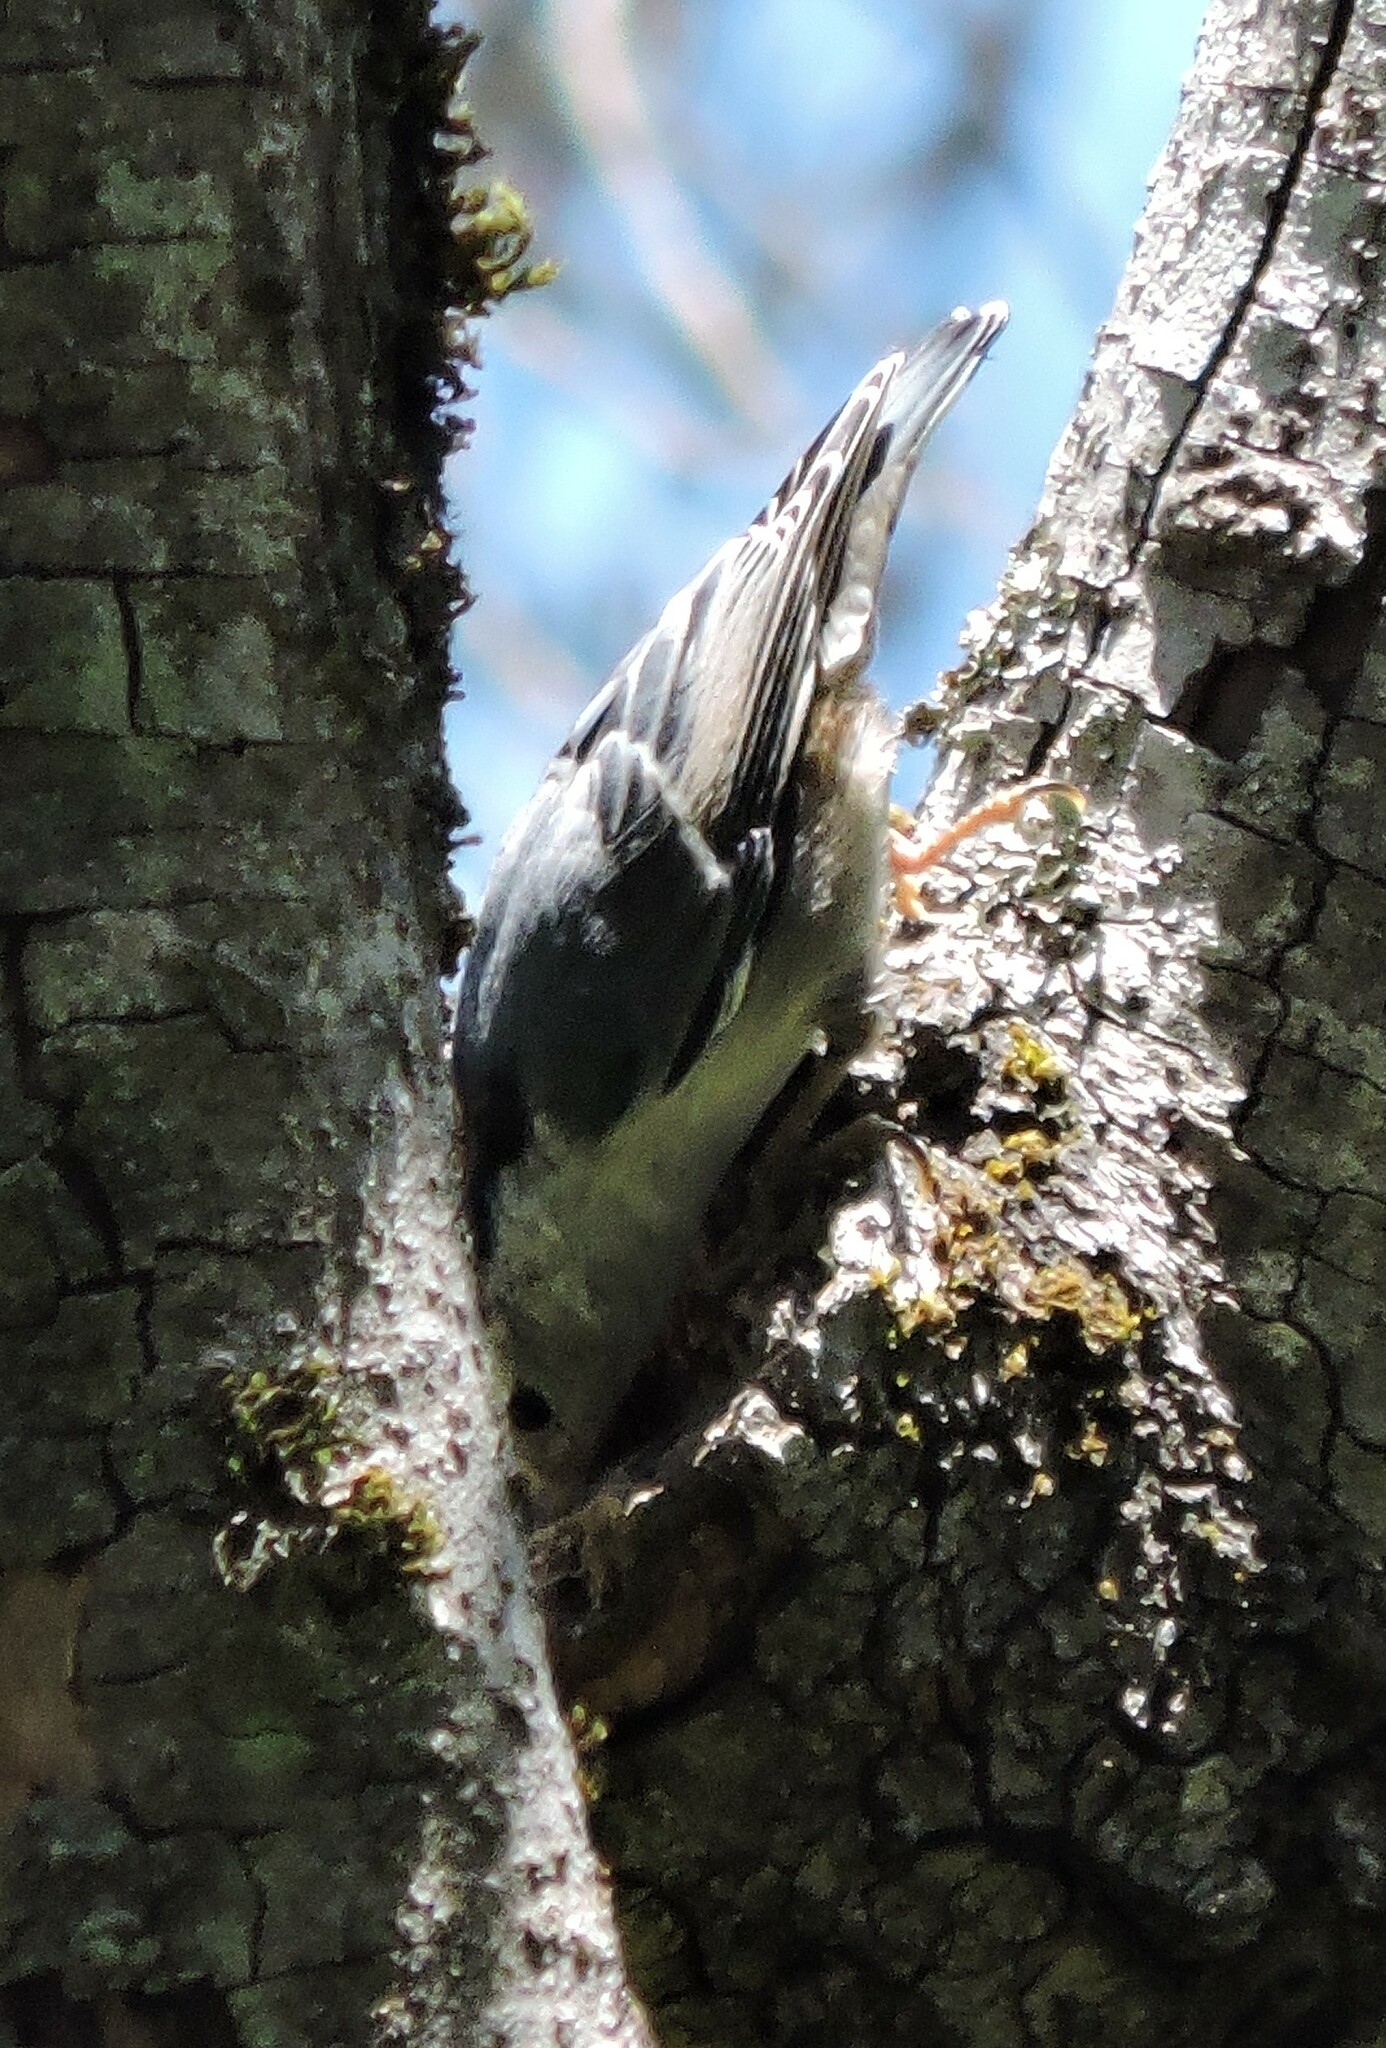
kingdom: Animalia
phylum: Chordata
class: Aves
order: Passeriformes
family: Sittidae
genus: Sitta
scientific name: Sitta carolinensis
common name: White-breasted nuthatch
